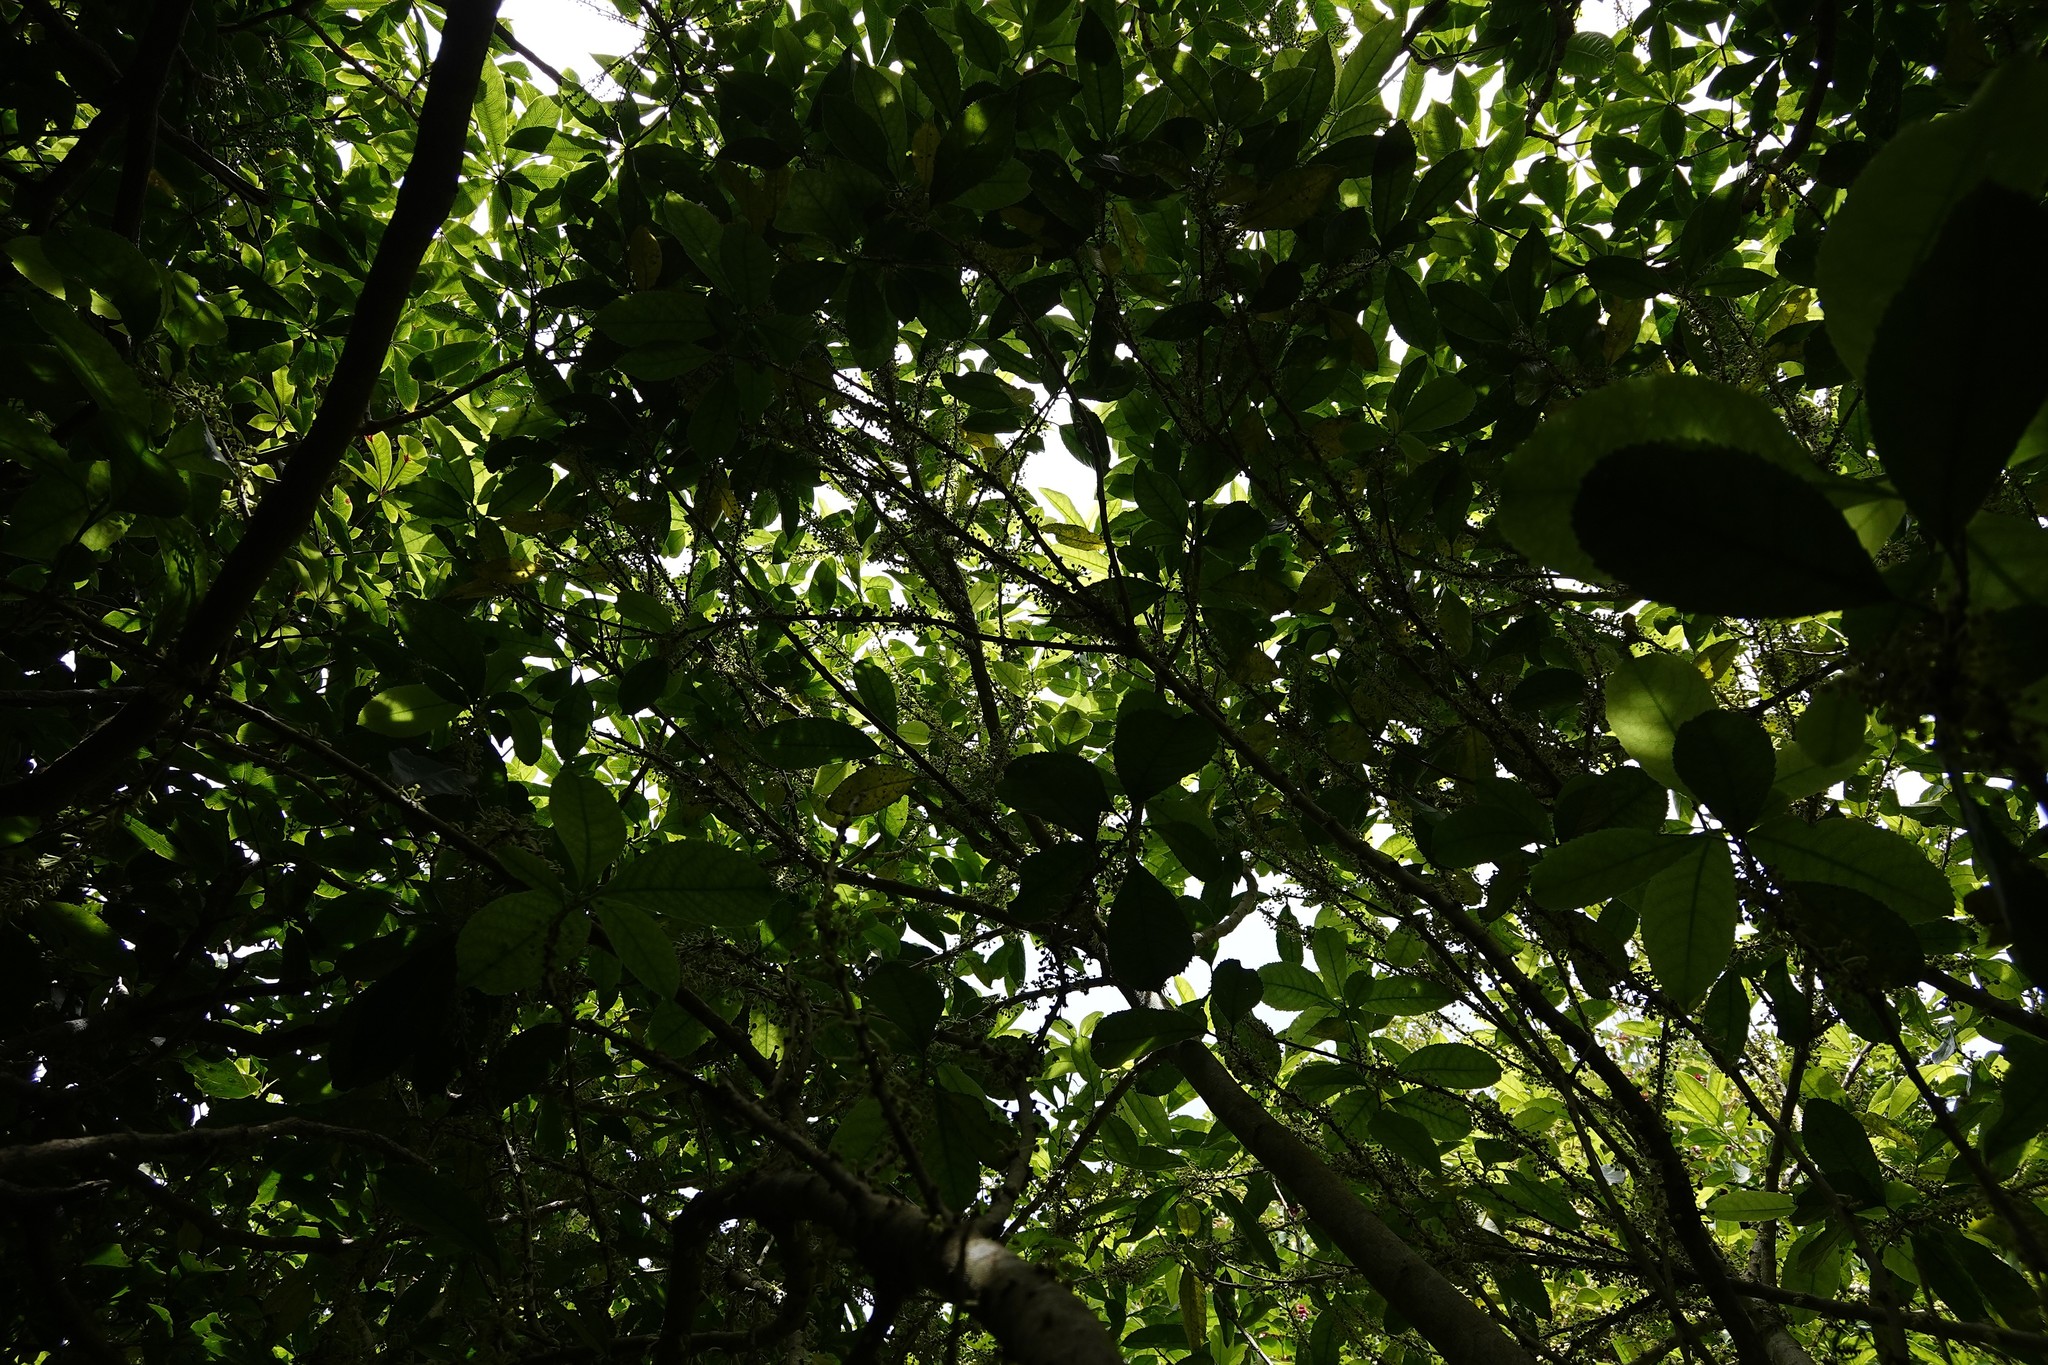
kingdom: Plantae
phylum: Tracheophyta
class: Magnoliopsida
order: Malpighiales
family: Violaceae
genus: Melicytus
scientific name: Melicytus ramiflorus
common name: Mahoe
